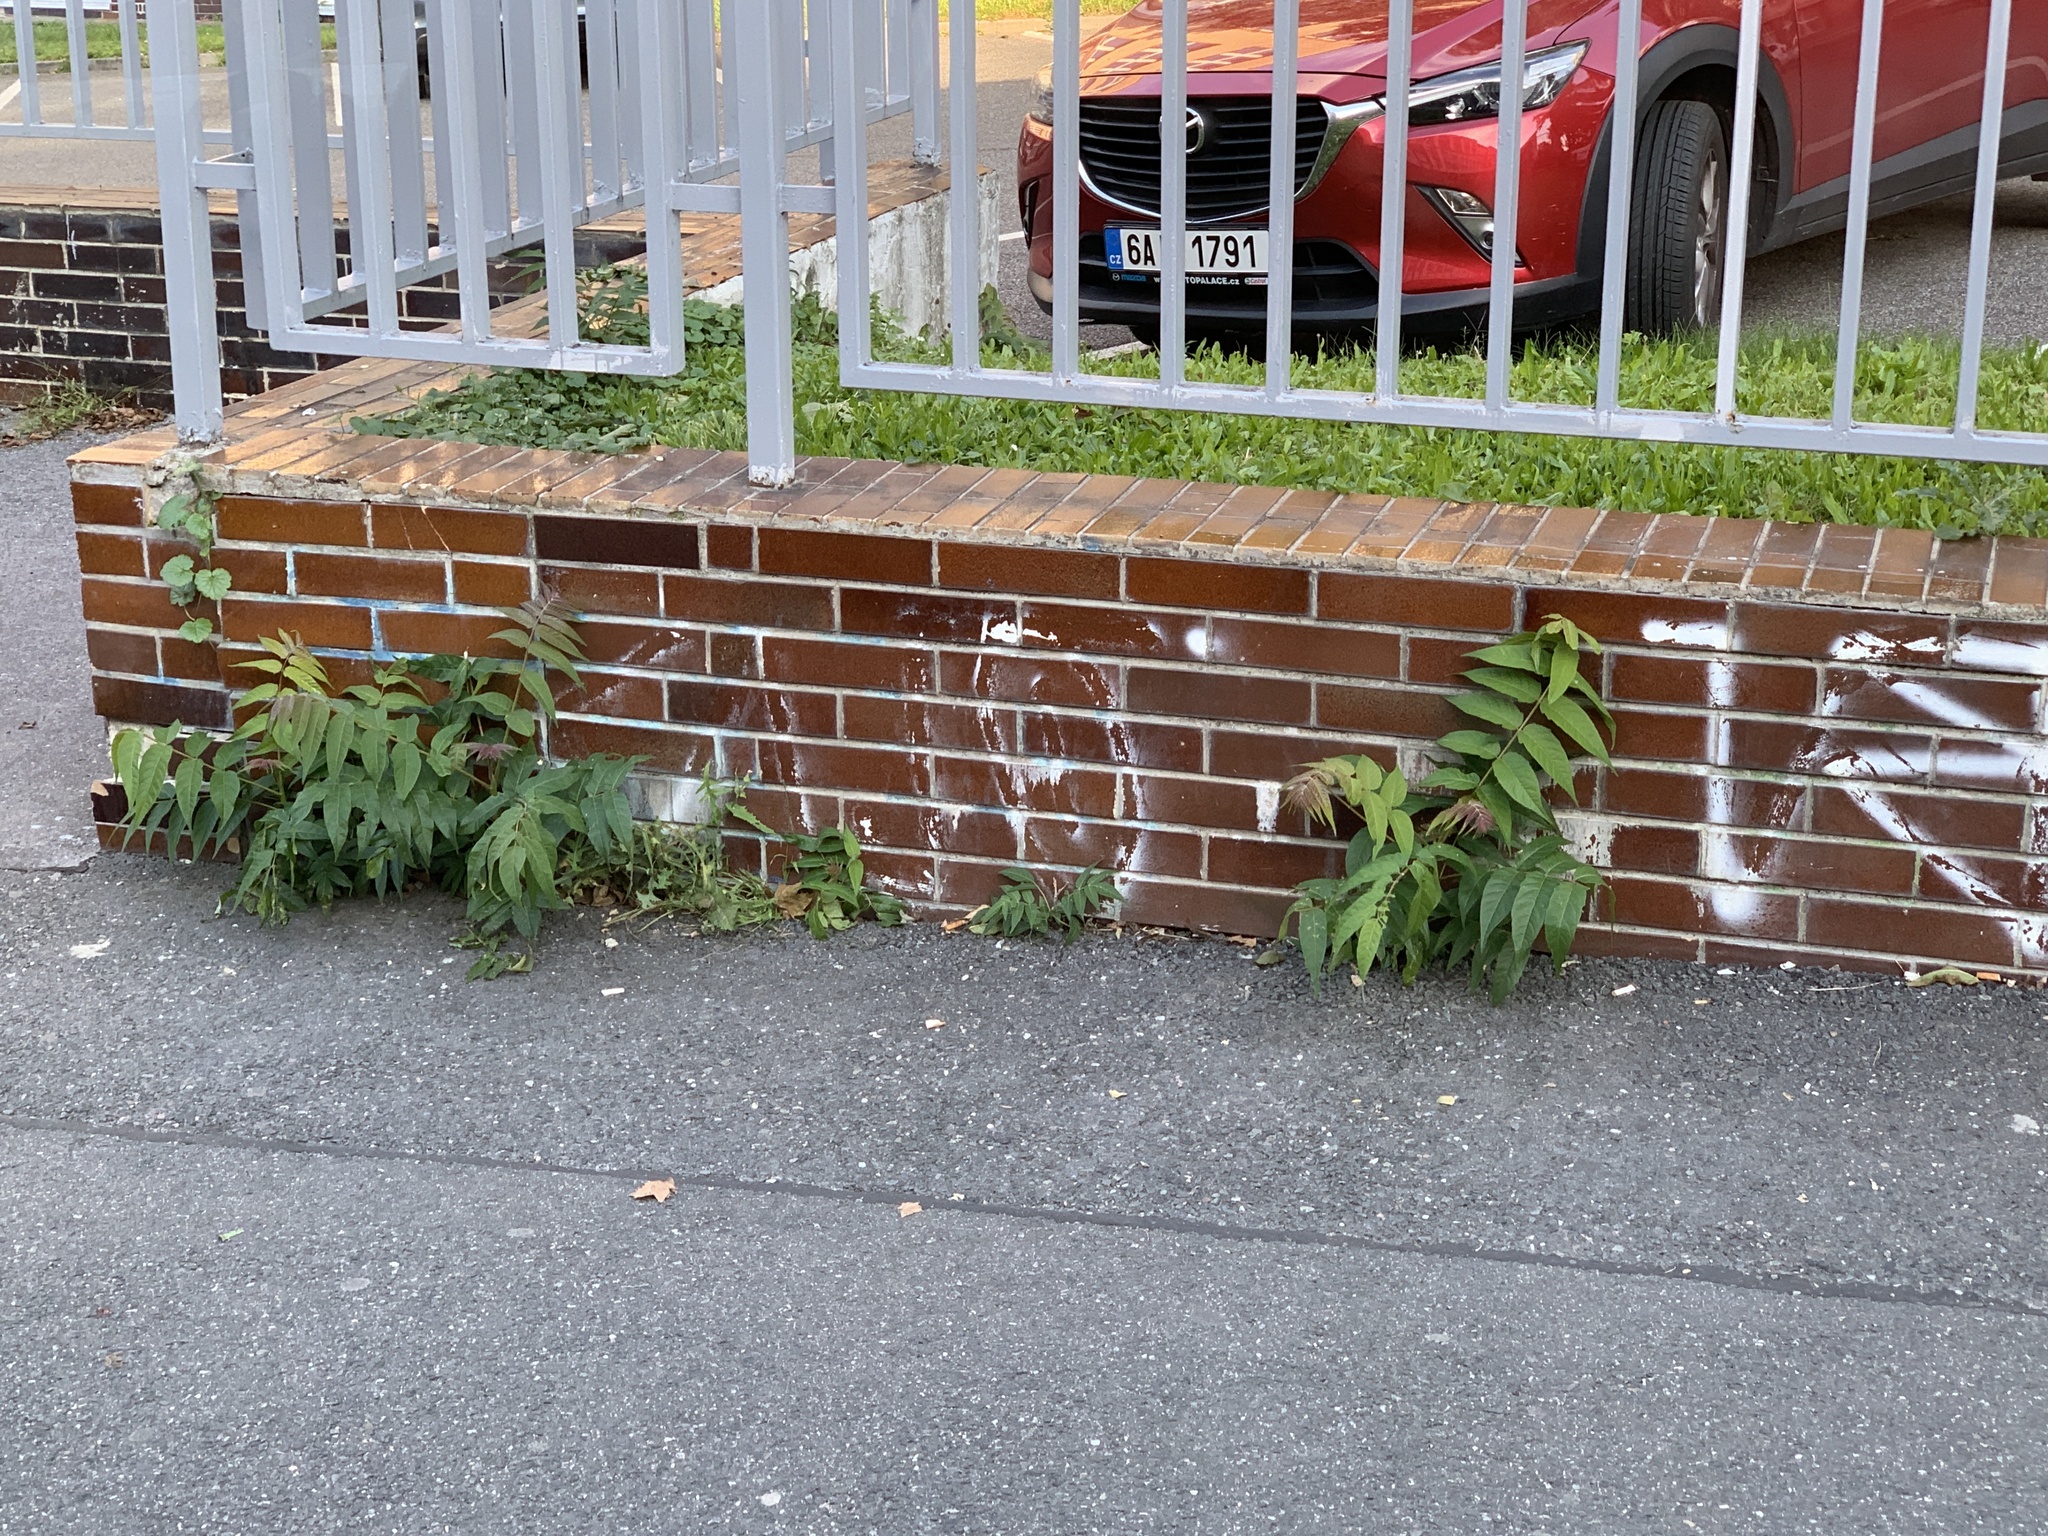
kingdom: Plantae
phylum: Tracheophyta
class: Magnoliopsida
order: Sapindales
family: Simaroubaceae
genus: Ailanthus
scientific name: Ailanthus altissima
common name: Tree-of-heaven
